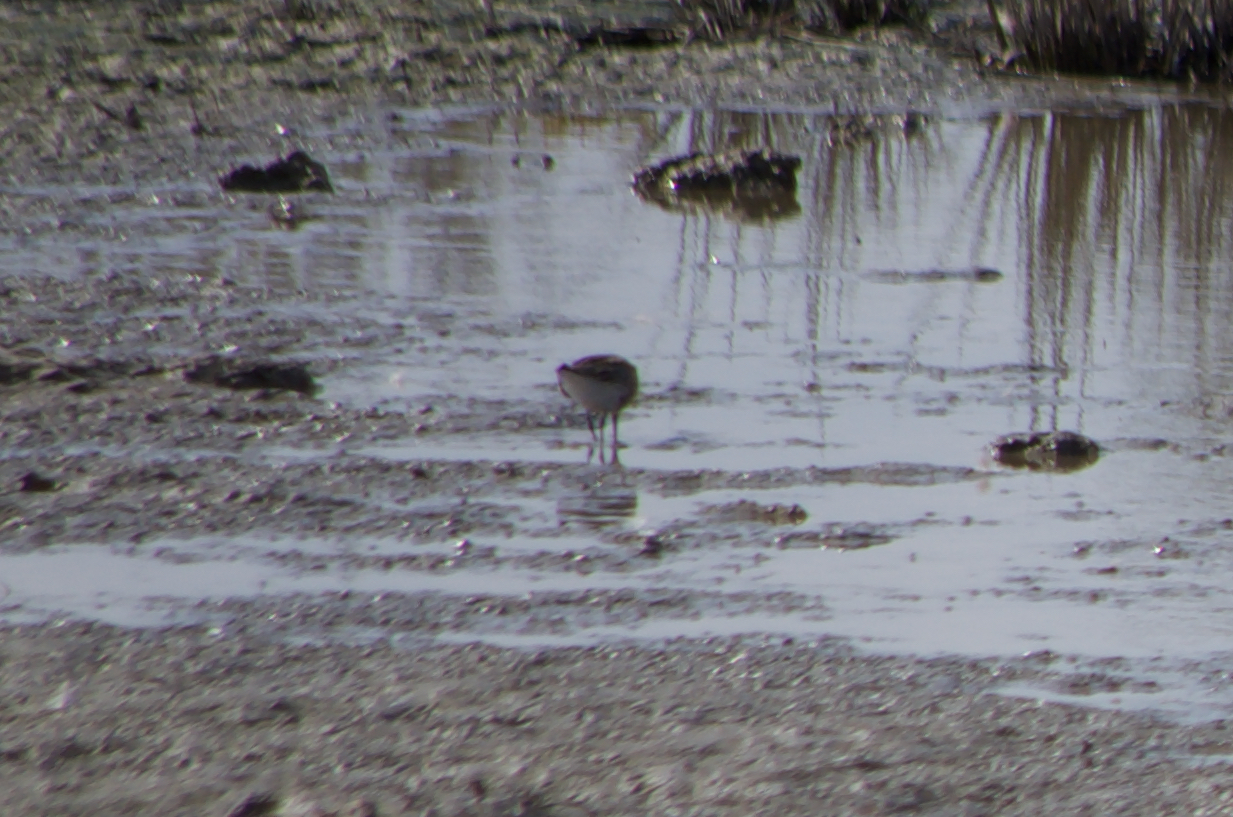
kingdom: Animalia
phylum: Chordata
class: Aves
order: Charadriiformes
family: Scolopacidae
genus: Calidris
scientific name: Calidris alpina
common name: Dunlin
